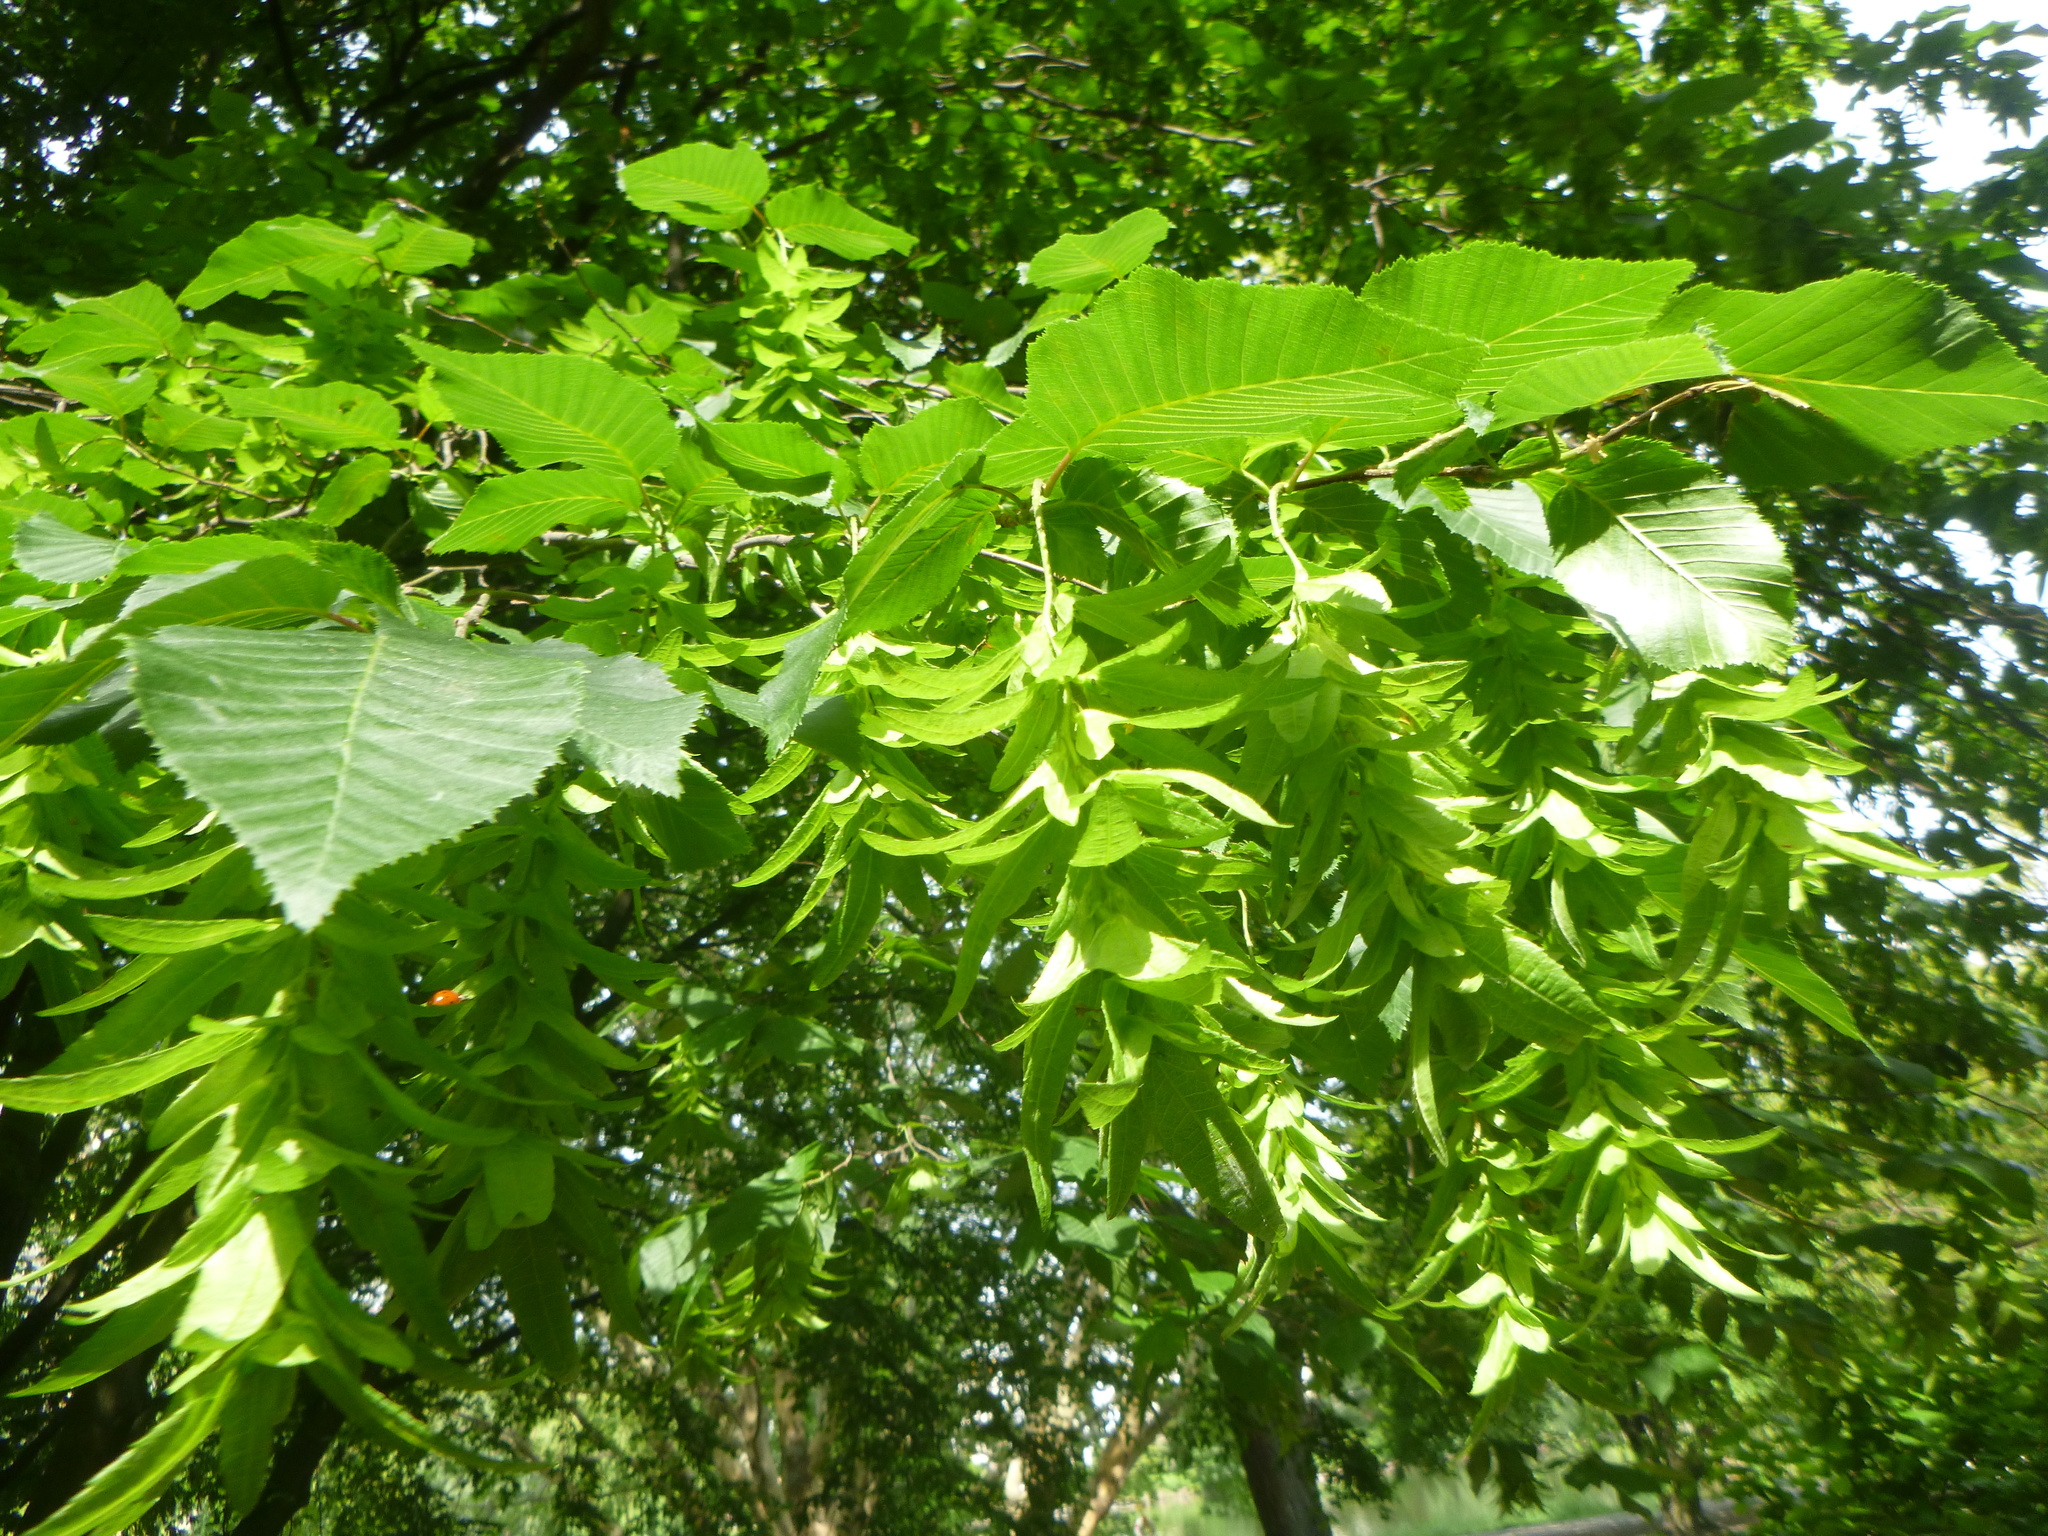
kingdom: Plantae
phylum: Tracheophyta
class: Magnoliopsida
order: Fagales
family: Betulaceae
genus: Carpinus
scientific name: Carpinus betulus
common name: Hornbeam
